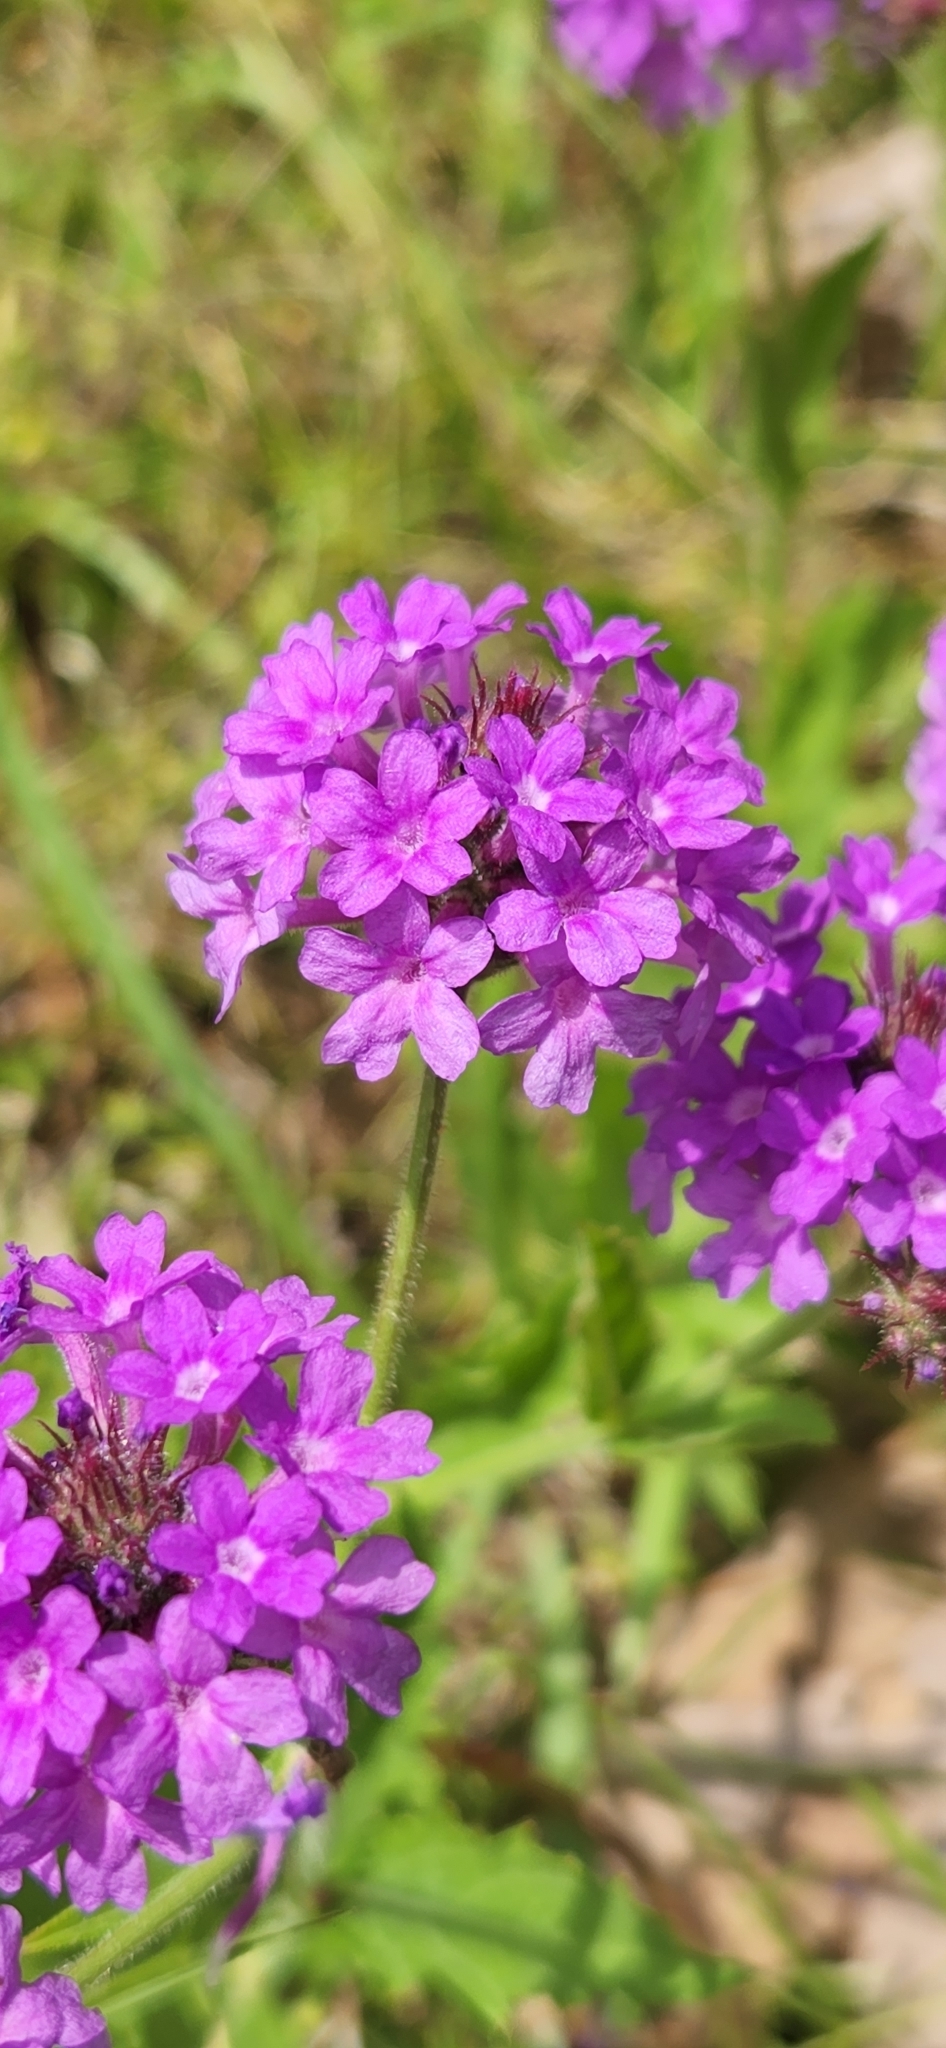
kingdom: Plantae
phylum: Tracheophyta
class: Magnoliopsida
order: Lamiales
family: Verbenaceae
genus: Verbena
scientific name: Verbena rigida
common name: Slender vervain
